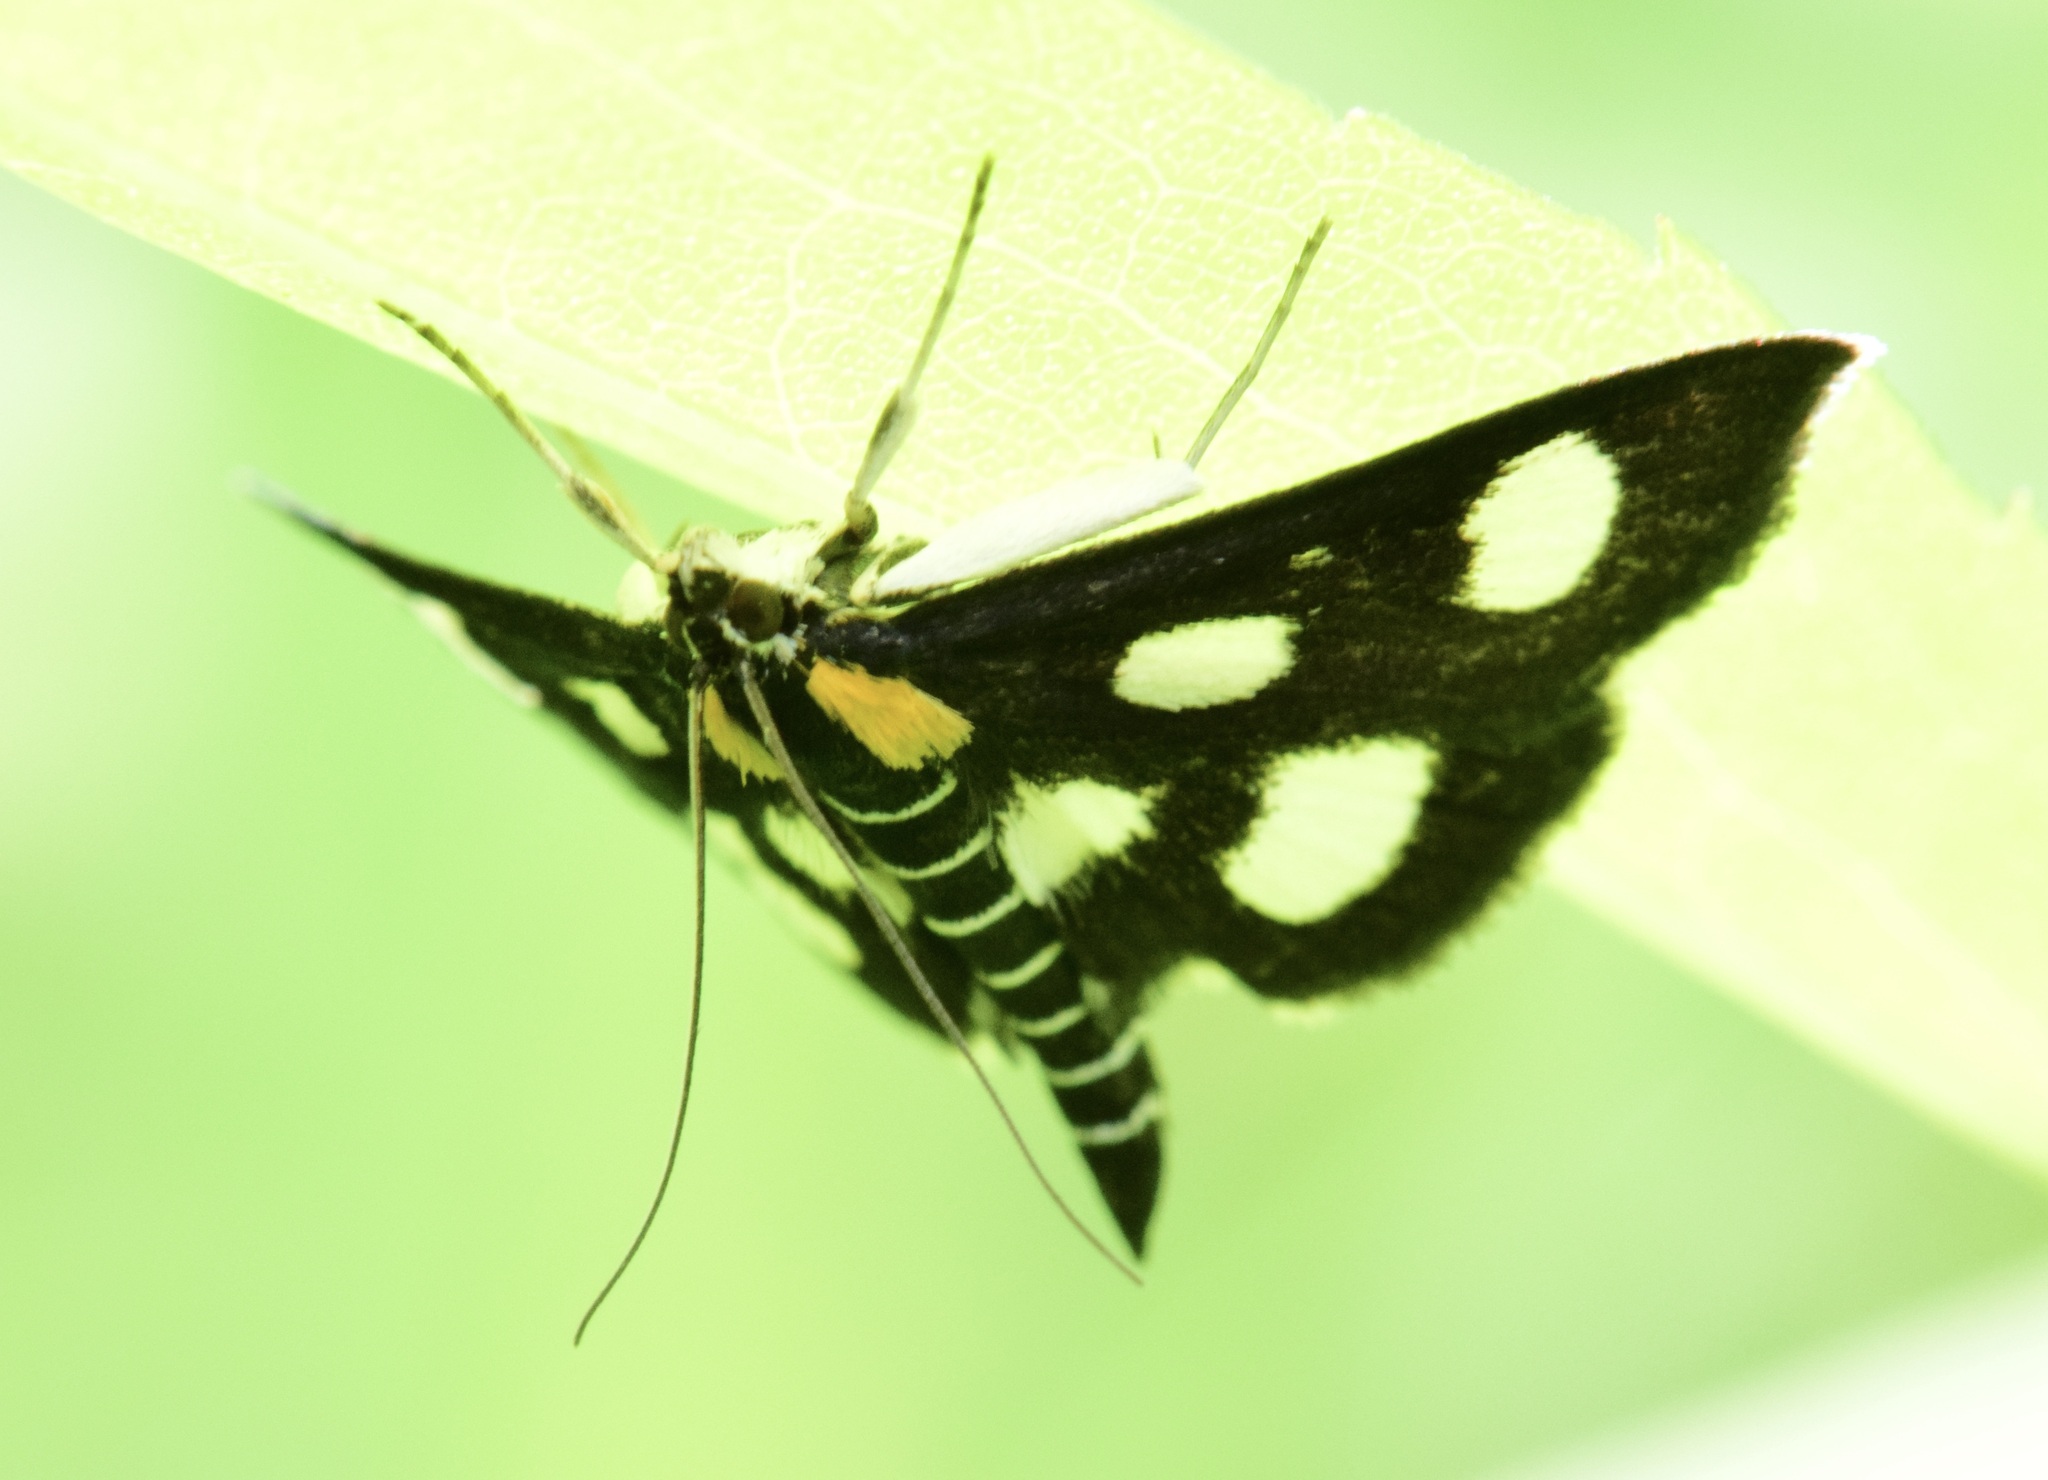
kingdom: Animalia
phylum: Arthropoda
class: Insecta
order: Lepidoptera
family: Crambidae
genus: Anania
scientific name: Anania funebris
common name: White-spotted sable moth
